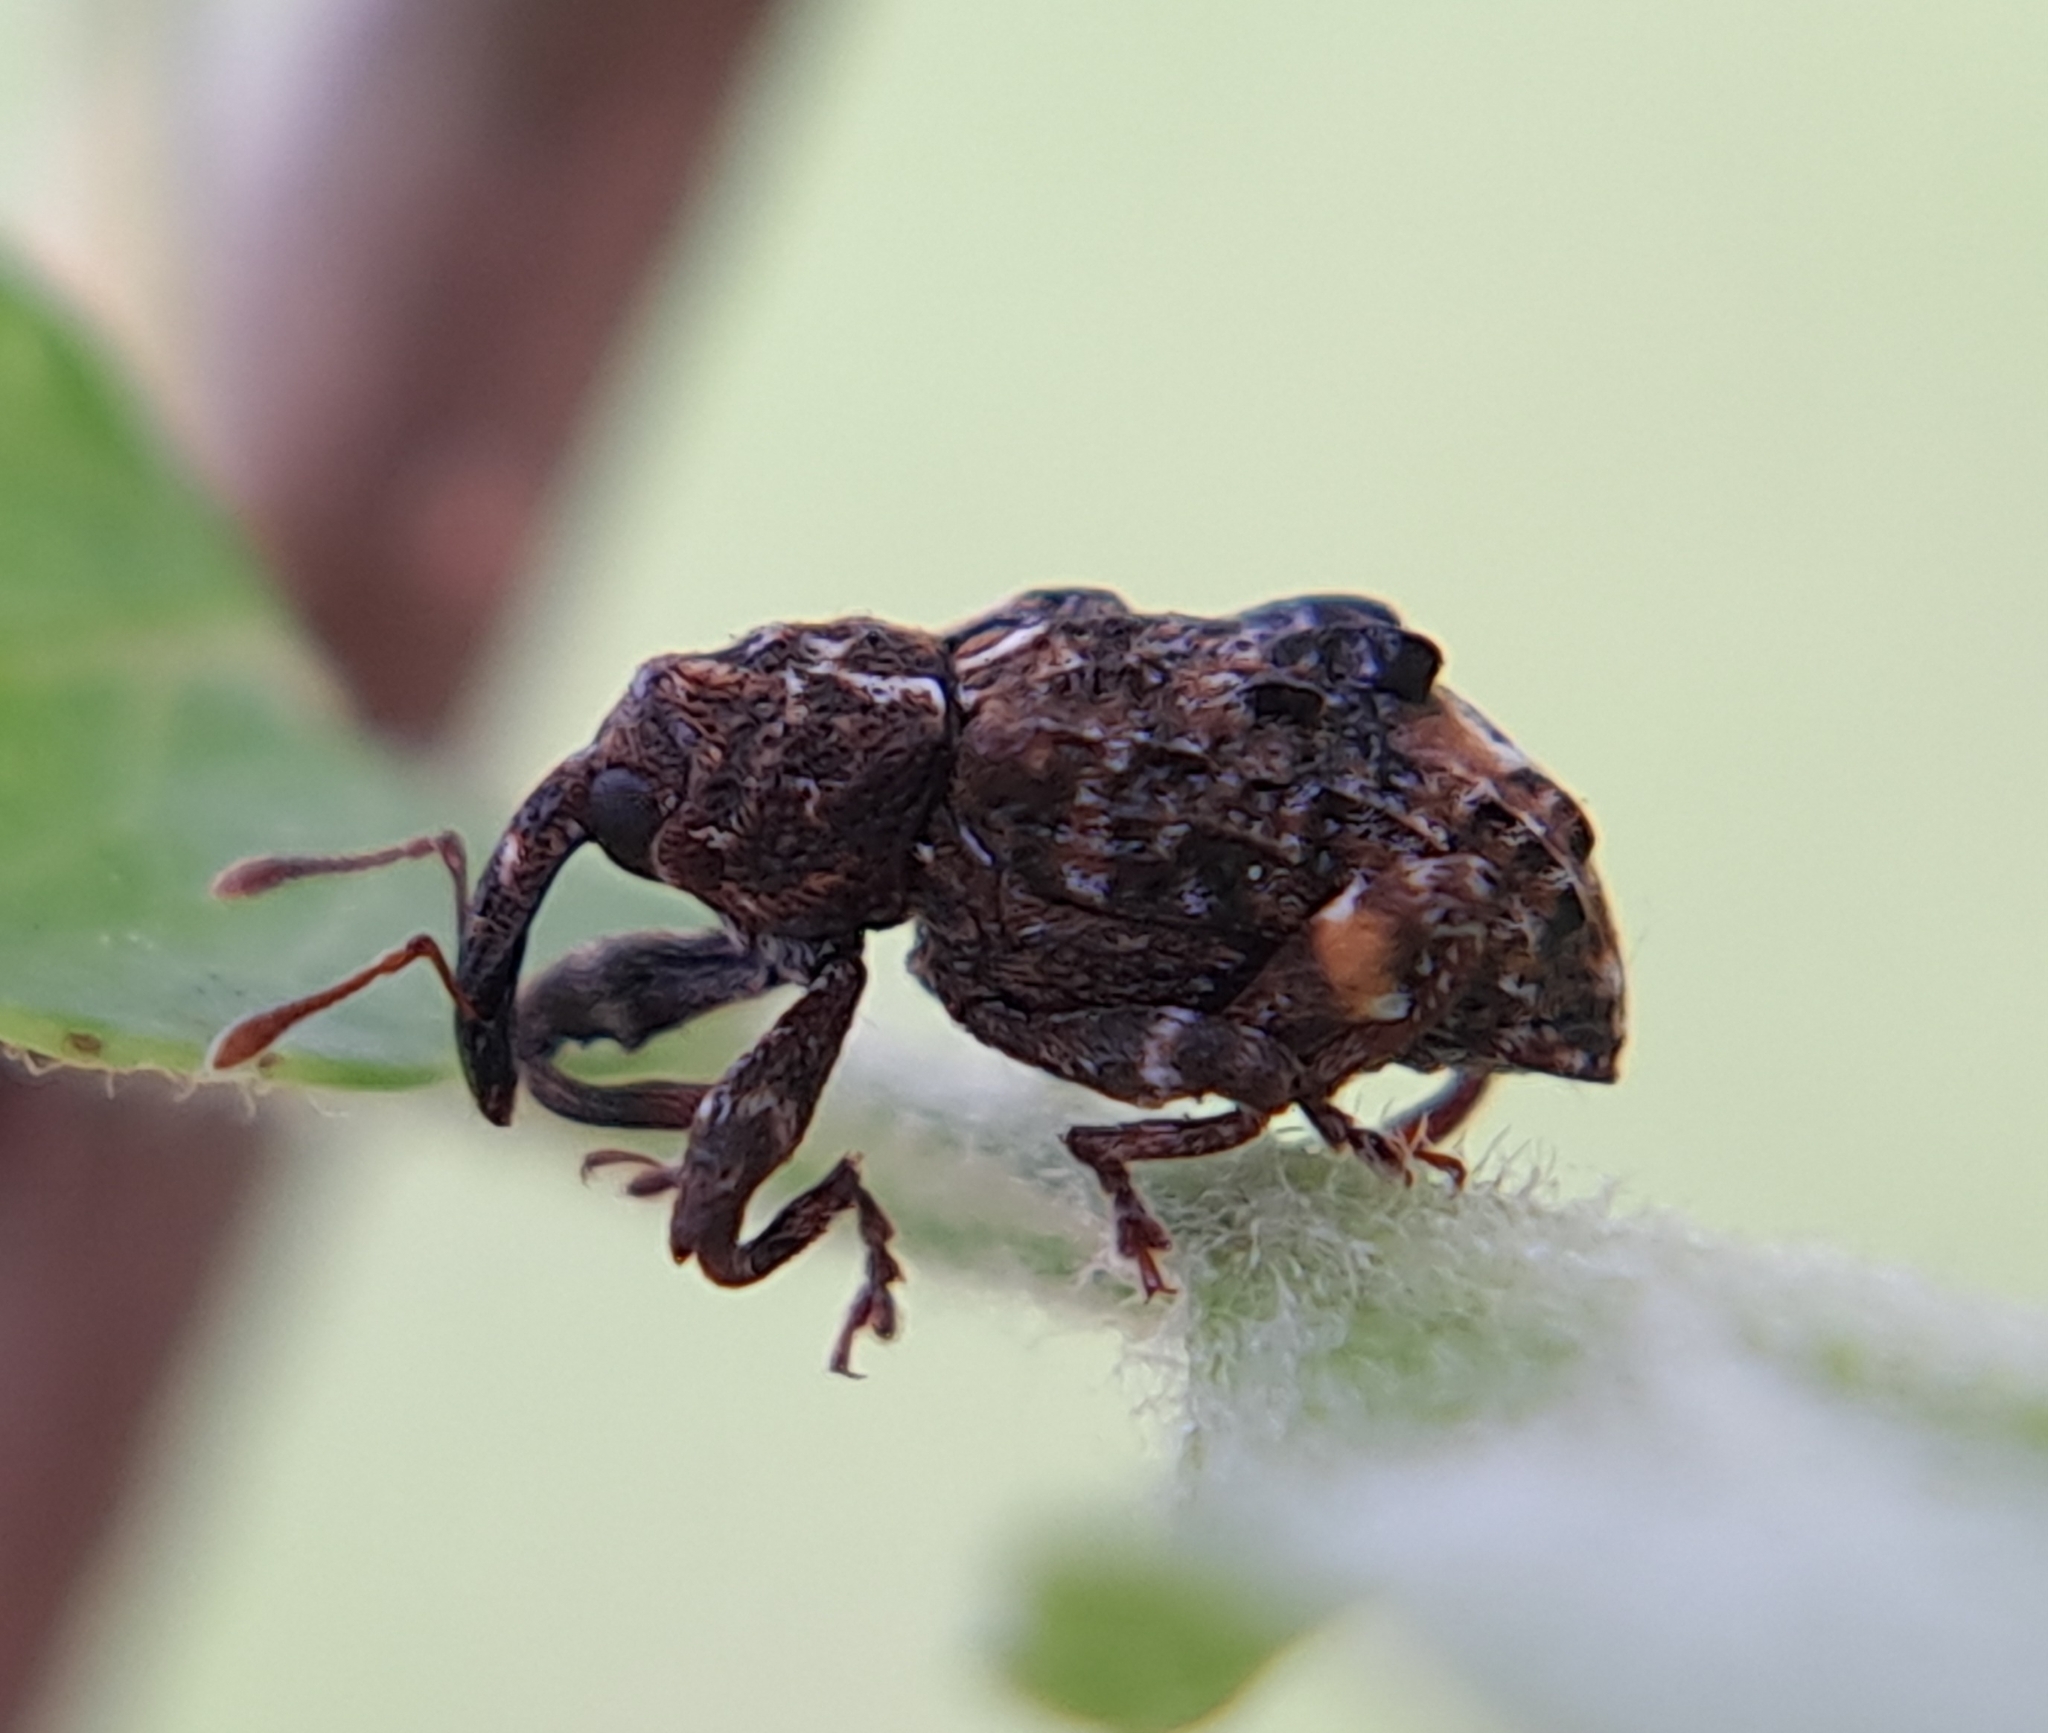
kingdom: Animalia
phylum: Arthropoda
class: Insecta
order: Coleoptera
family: Curculionidae
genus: Conotrachelus
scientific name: Conotrachelus nenuphar
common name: Plum curculio
